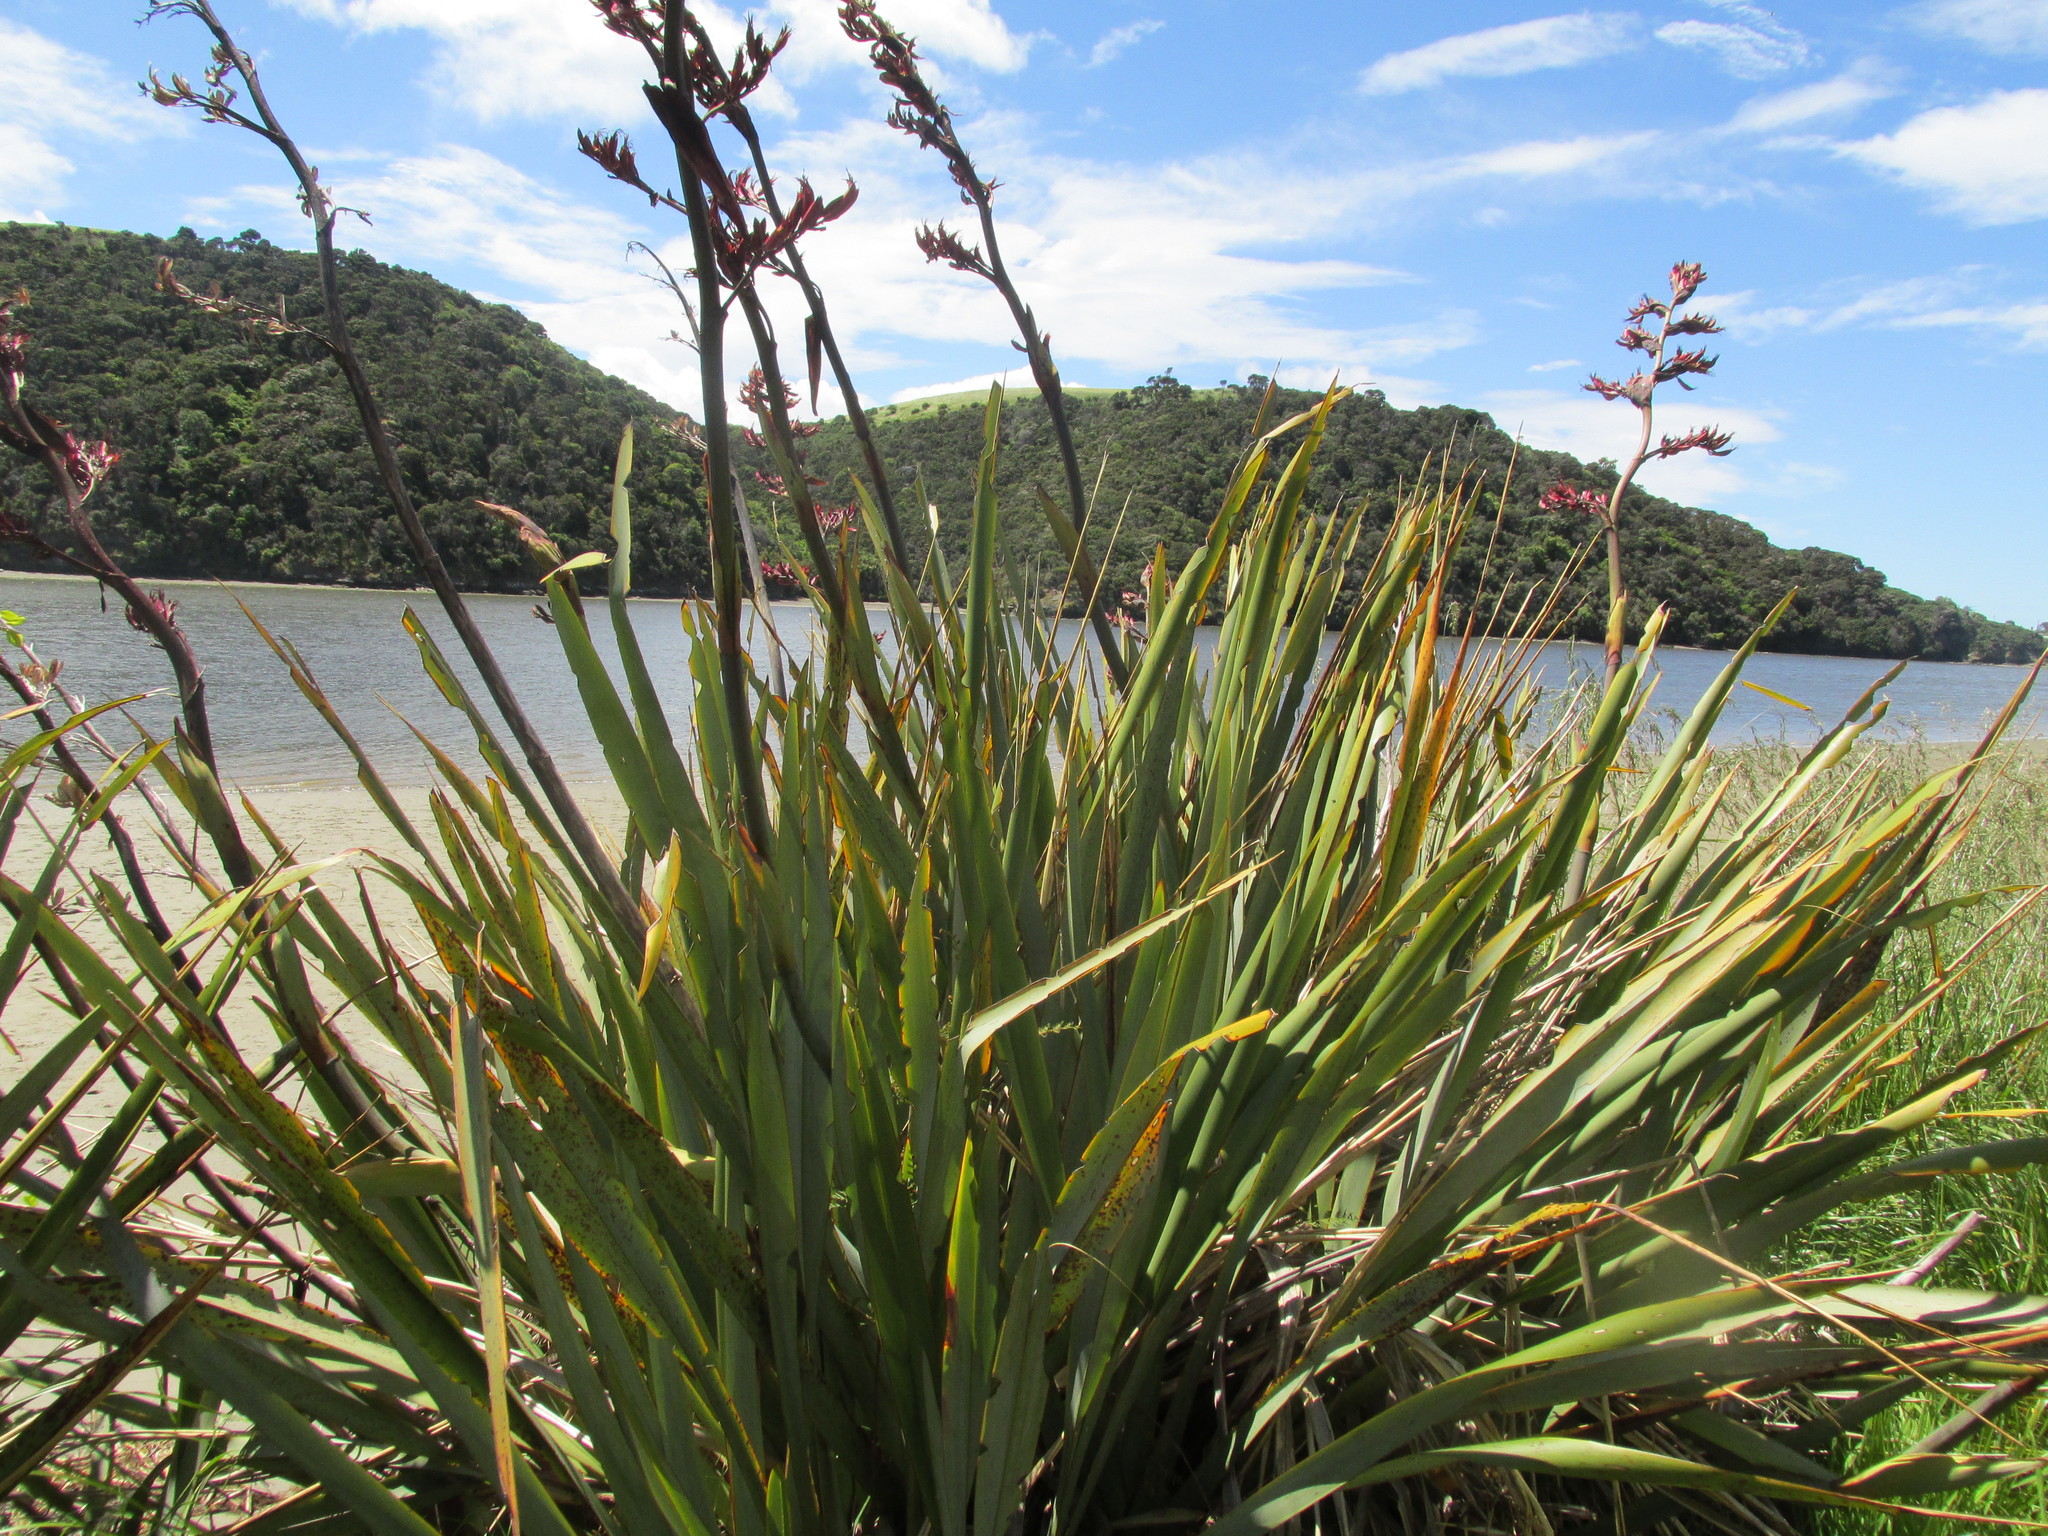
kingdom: Plantae
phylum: Tracheophyta
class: Liliopsida
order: Asparagales
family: Asphodelaceae
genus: Phormium
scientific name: Phormium tenax
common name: New zealand flax
